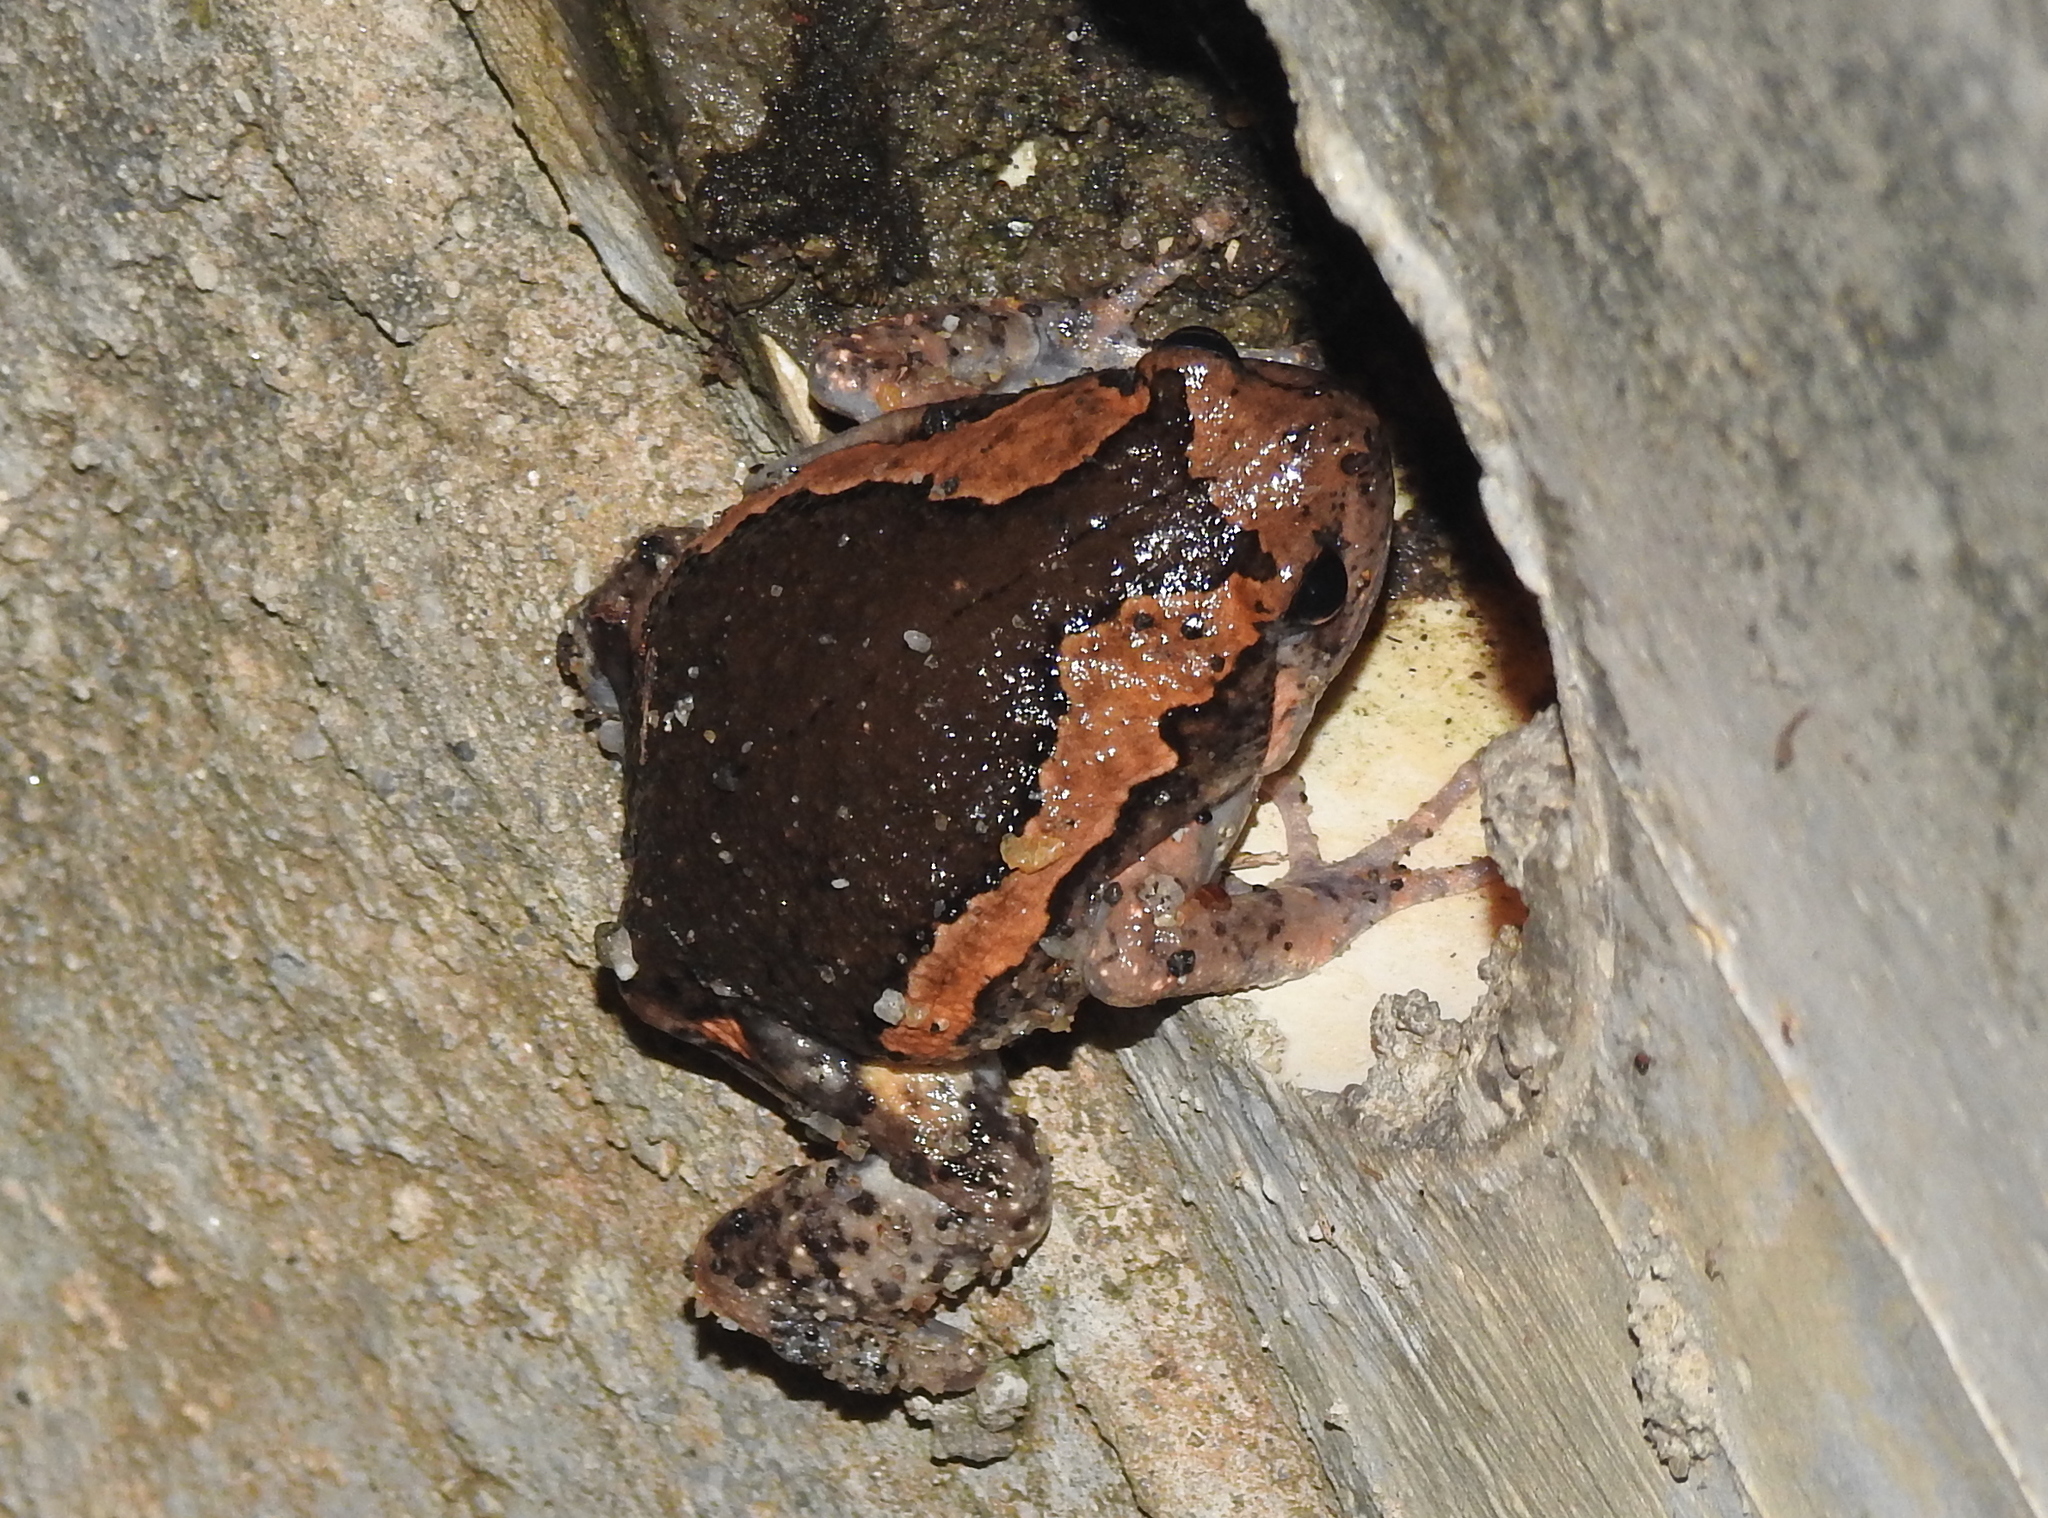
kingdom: Animalia
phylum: Chordata
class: Amphibia
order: Anura
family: Microhylidae
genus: Kaloula
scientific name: Kaloula pulchra
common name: Common,banded bullfrog
